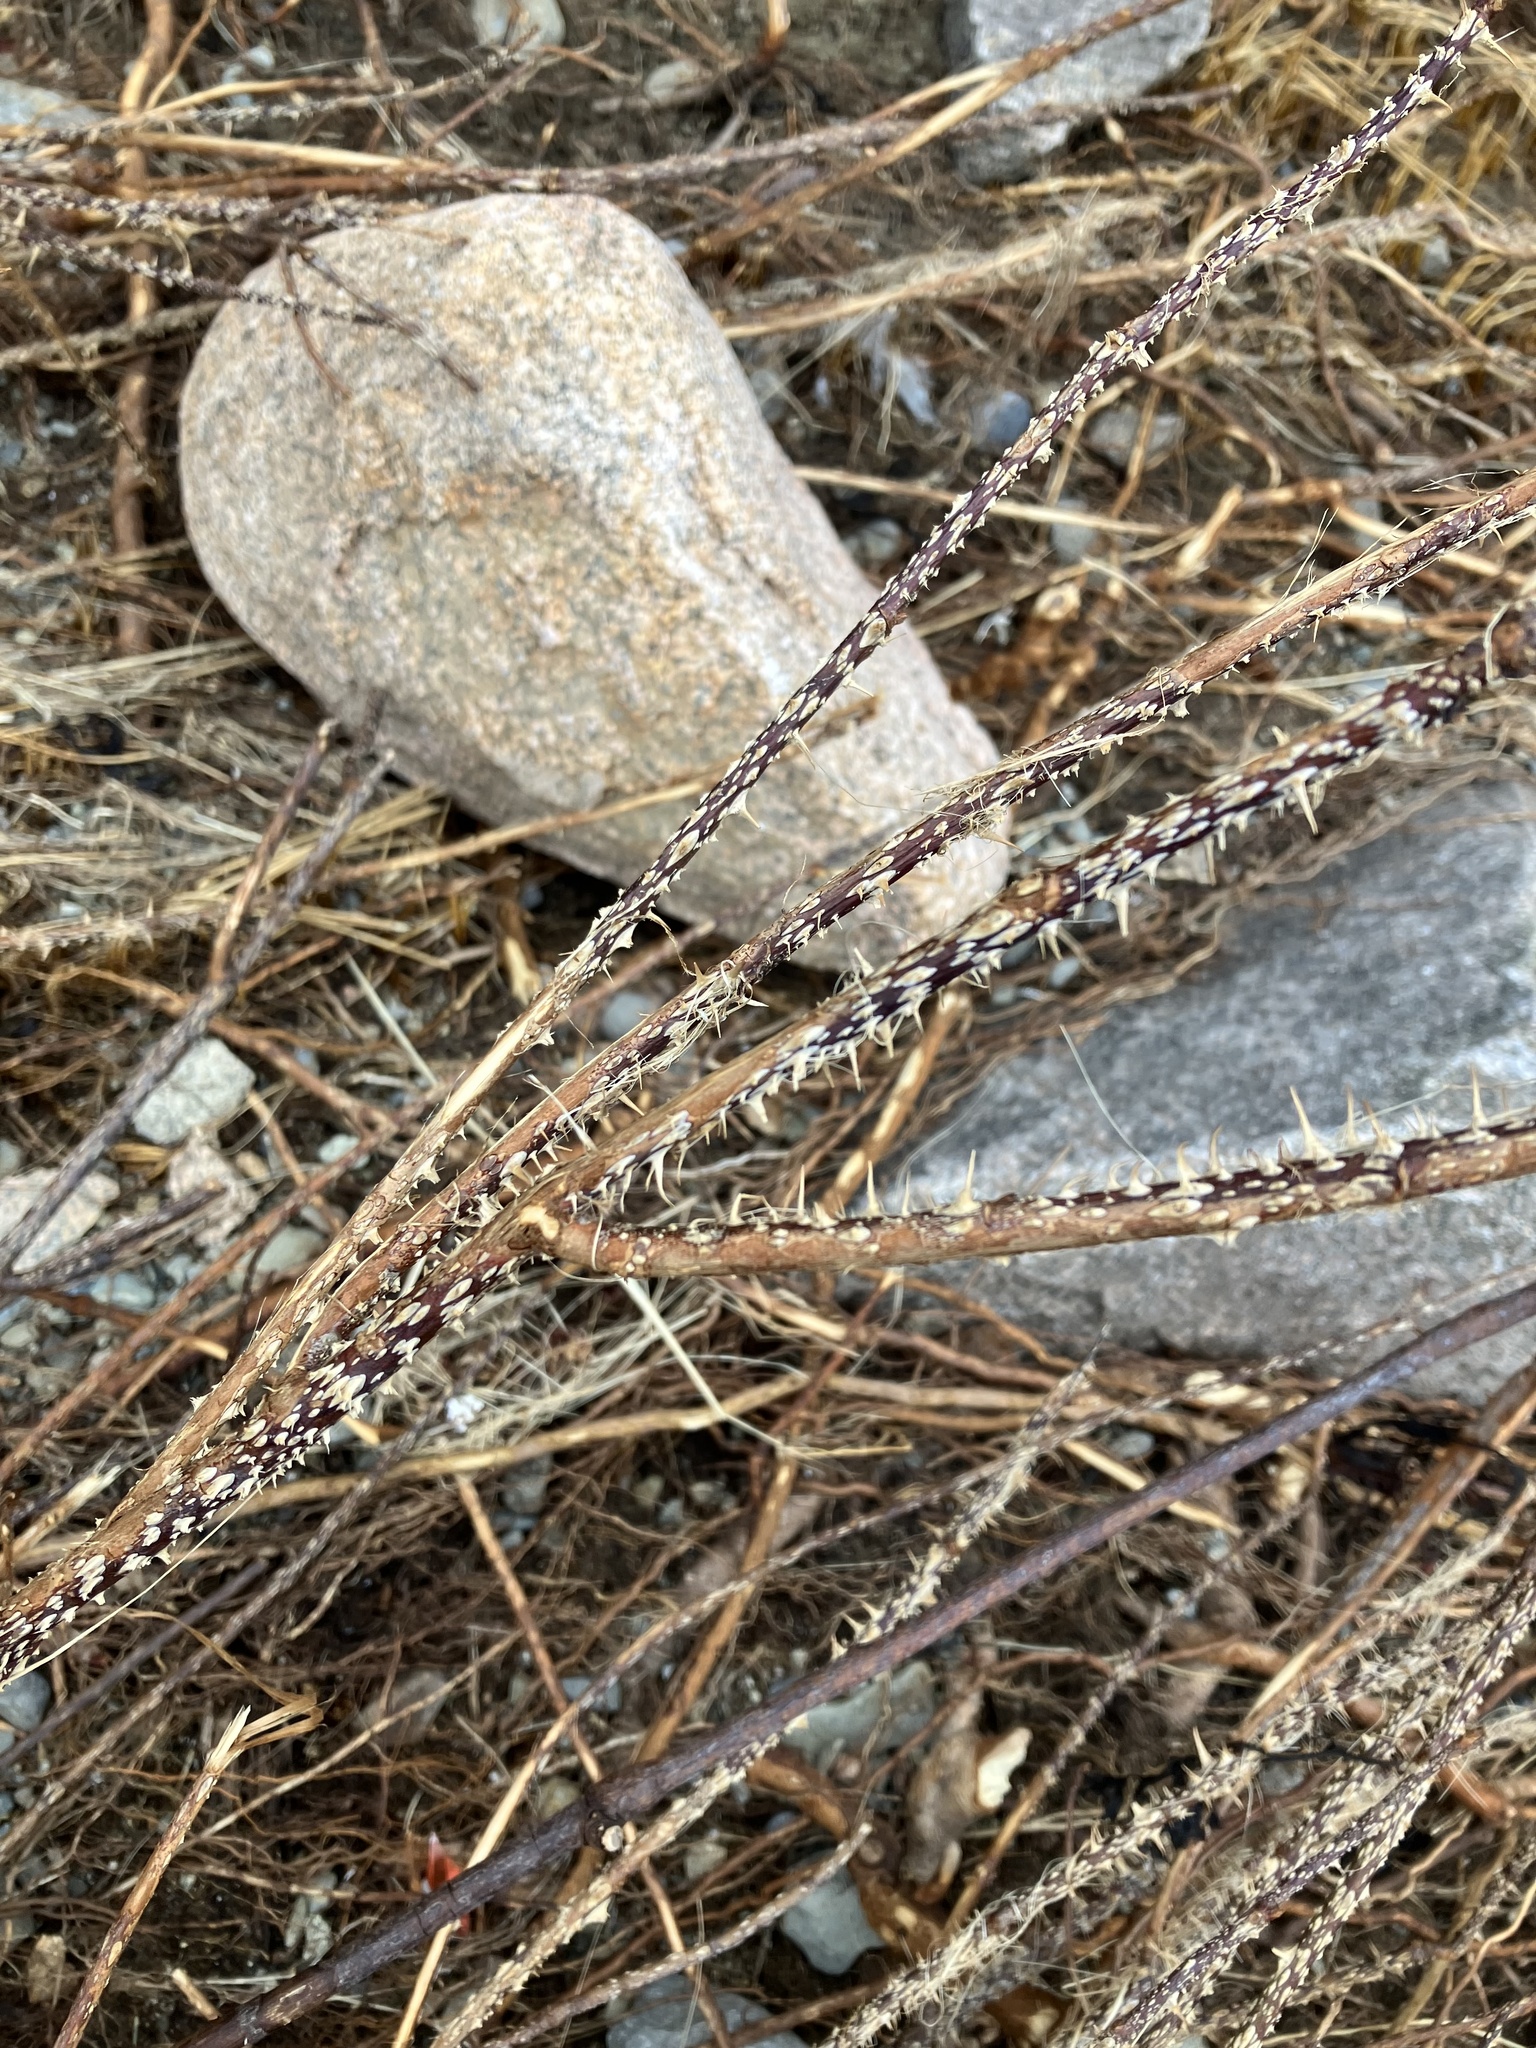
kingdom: Plantae
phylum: Tracheophyta
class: Magnoliopsida
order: Rosales
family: Rosaceae
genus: Rosa
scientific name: Rosa rugosa
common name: Japanese rose
